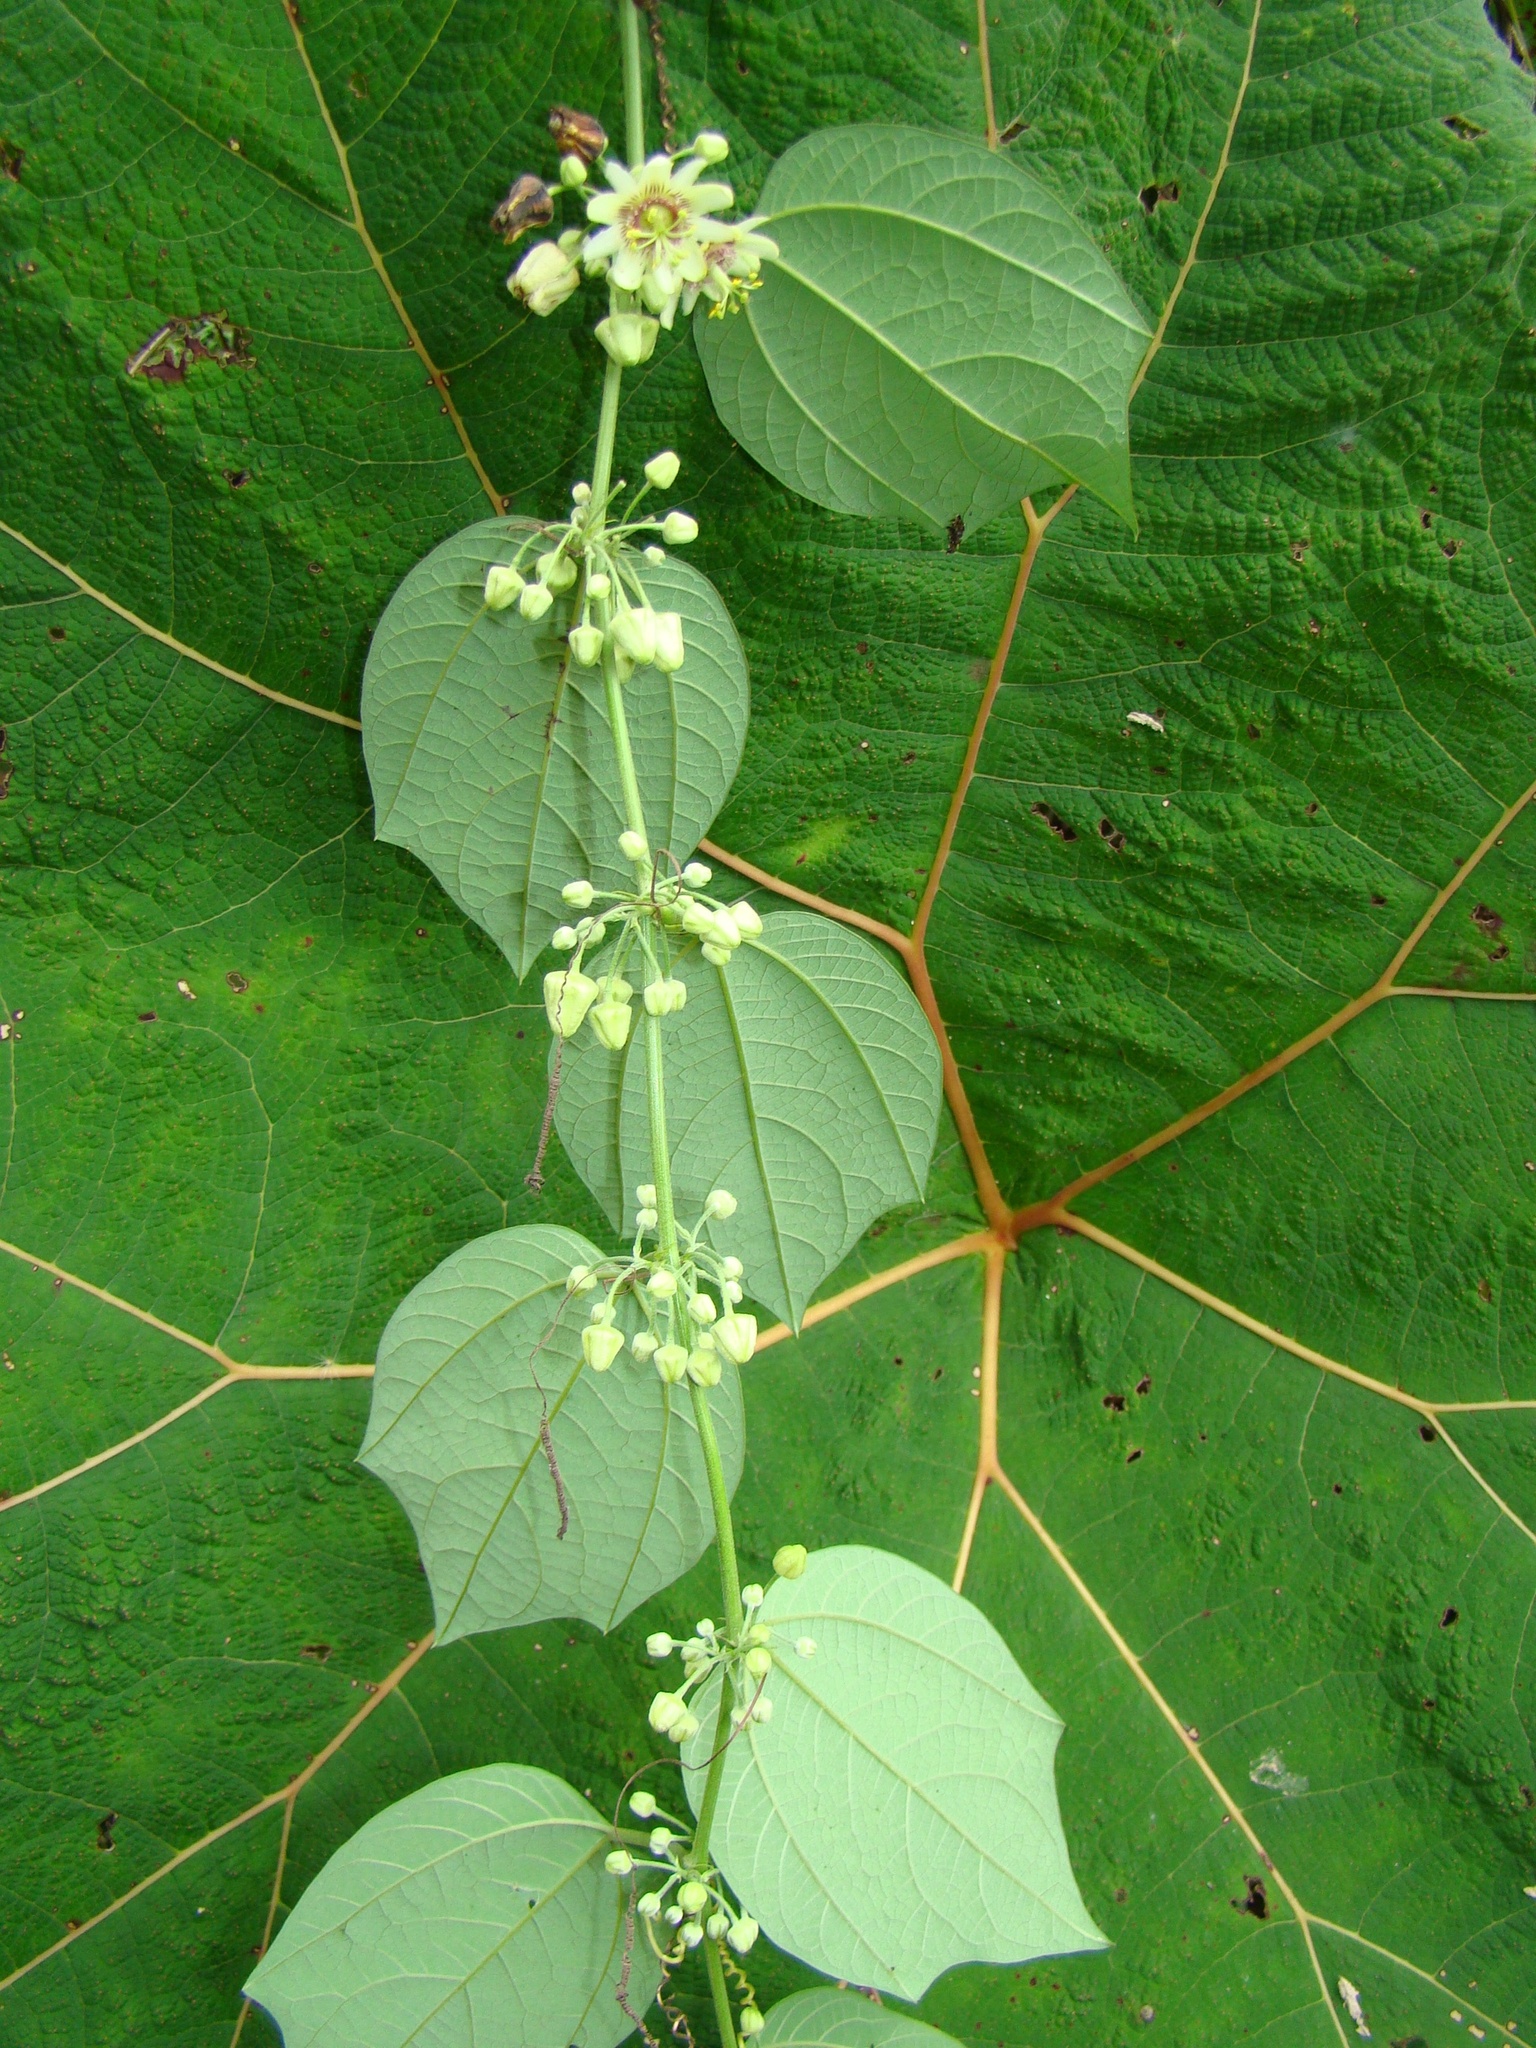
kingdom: Plantae
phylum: Tracheophyta
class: Magnoliopsida
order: Malpighiales
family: Passifloraceae
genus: Passiflora
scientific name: Passiflora apoda
